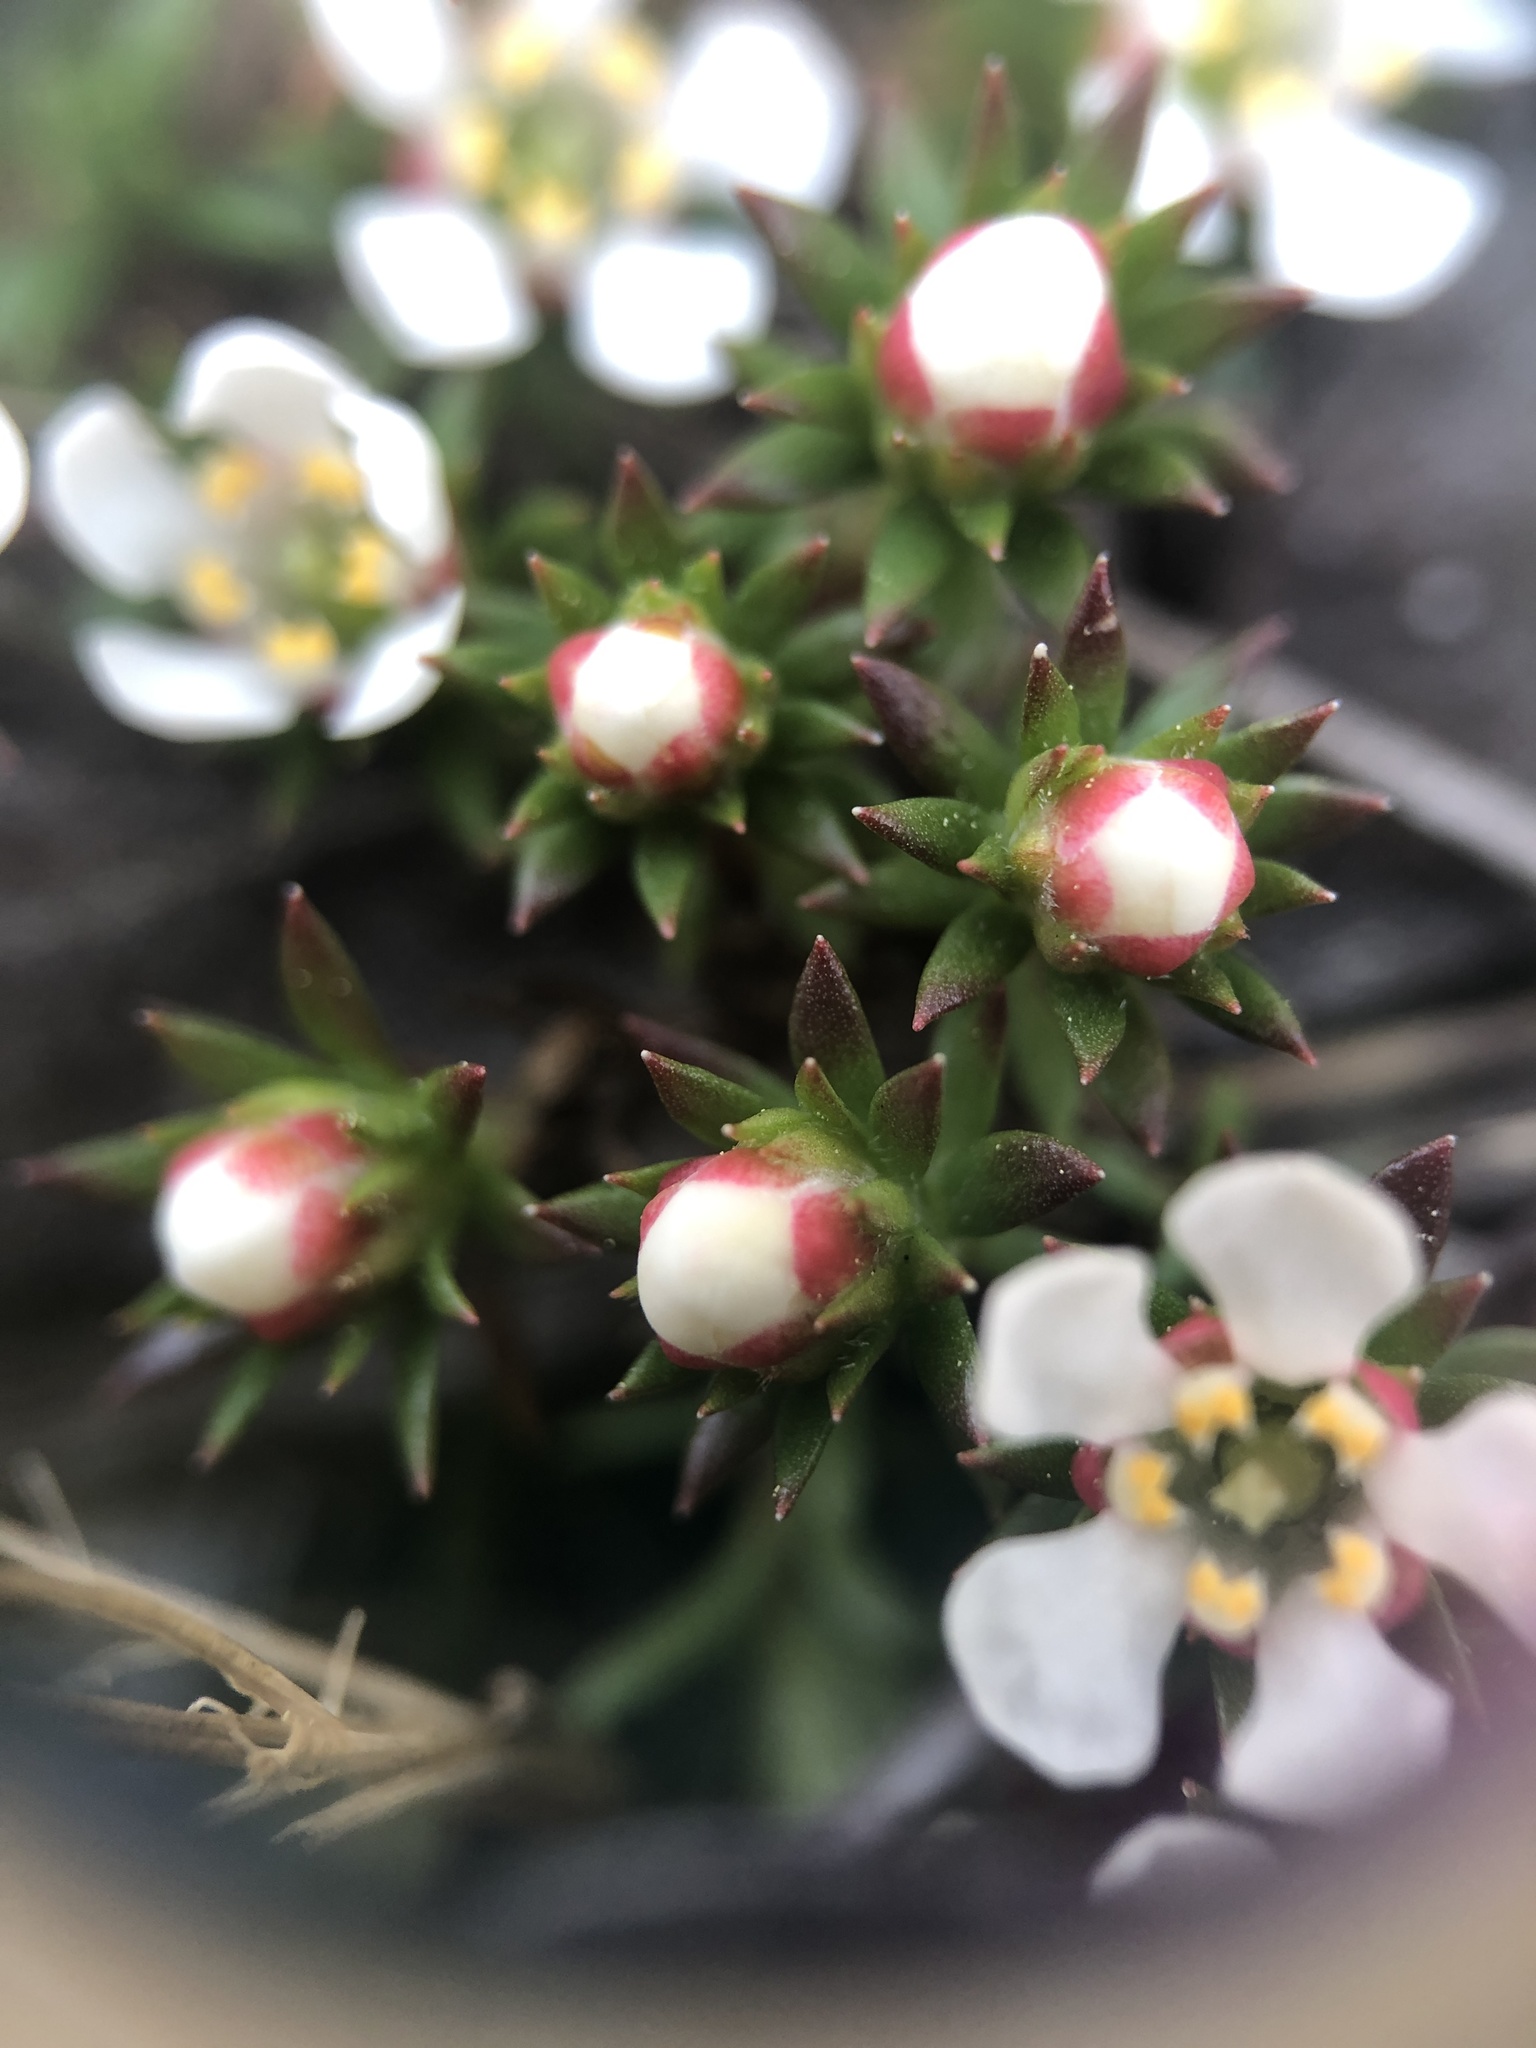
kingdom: Plantae
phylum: Tracheophyta
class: Magnoliopsida
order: Ericales
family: Diapensiaceae
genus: Pyxidanthera
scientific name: Pyxidanthera barbulata
